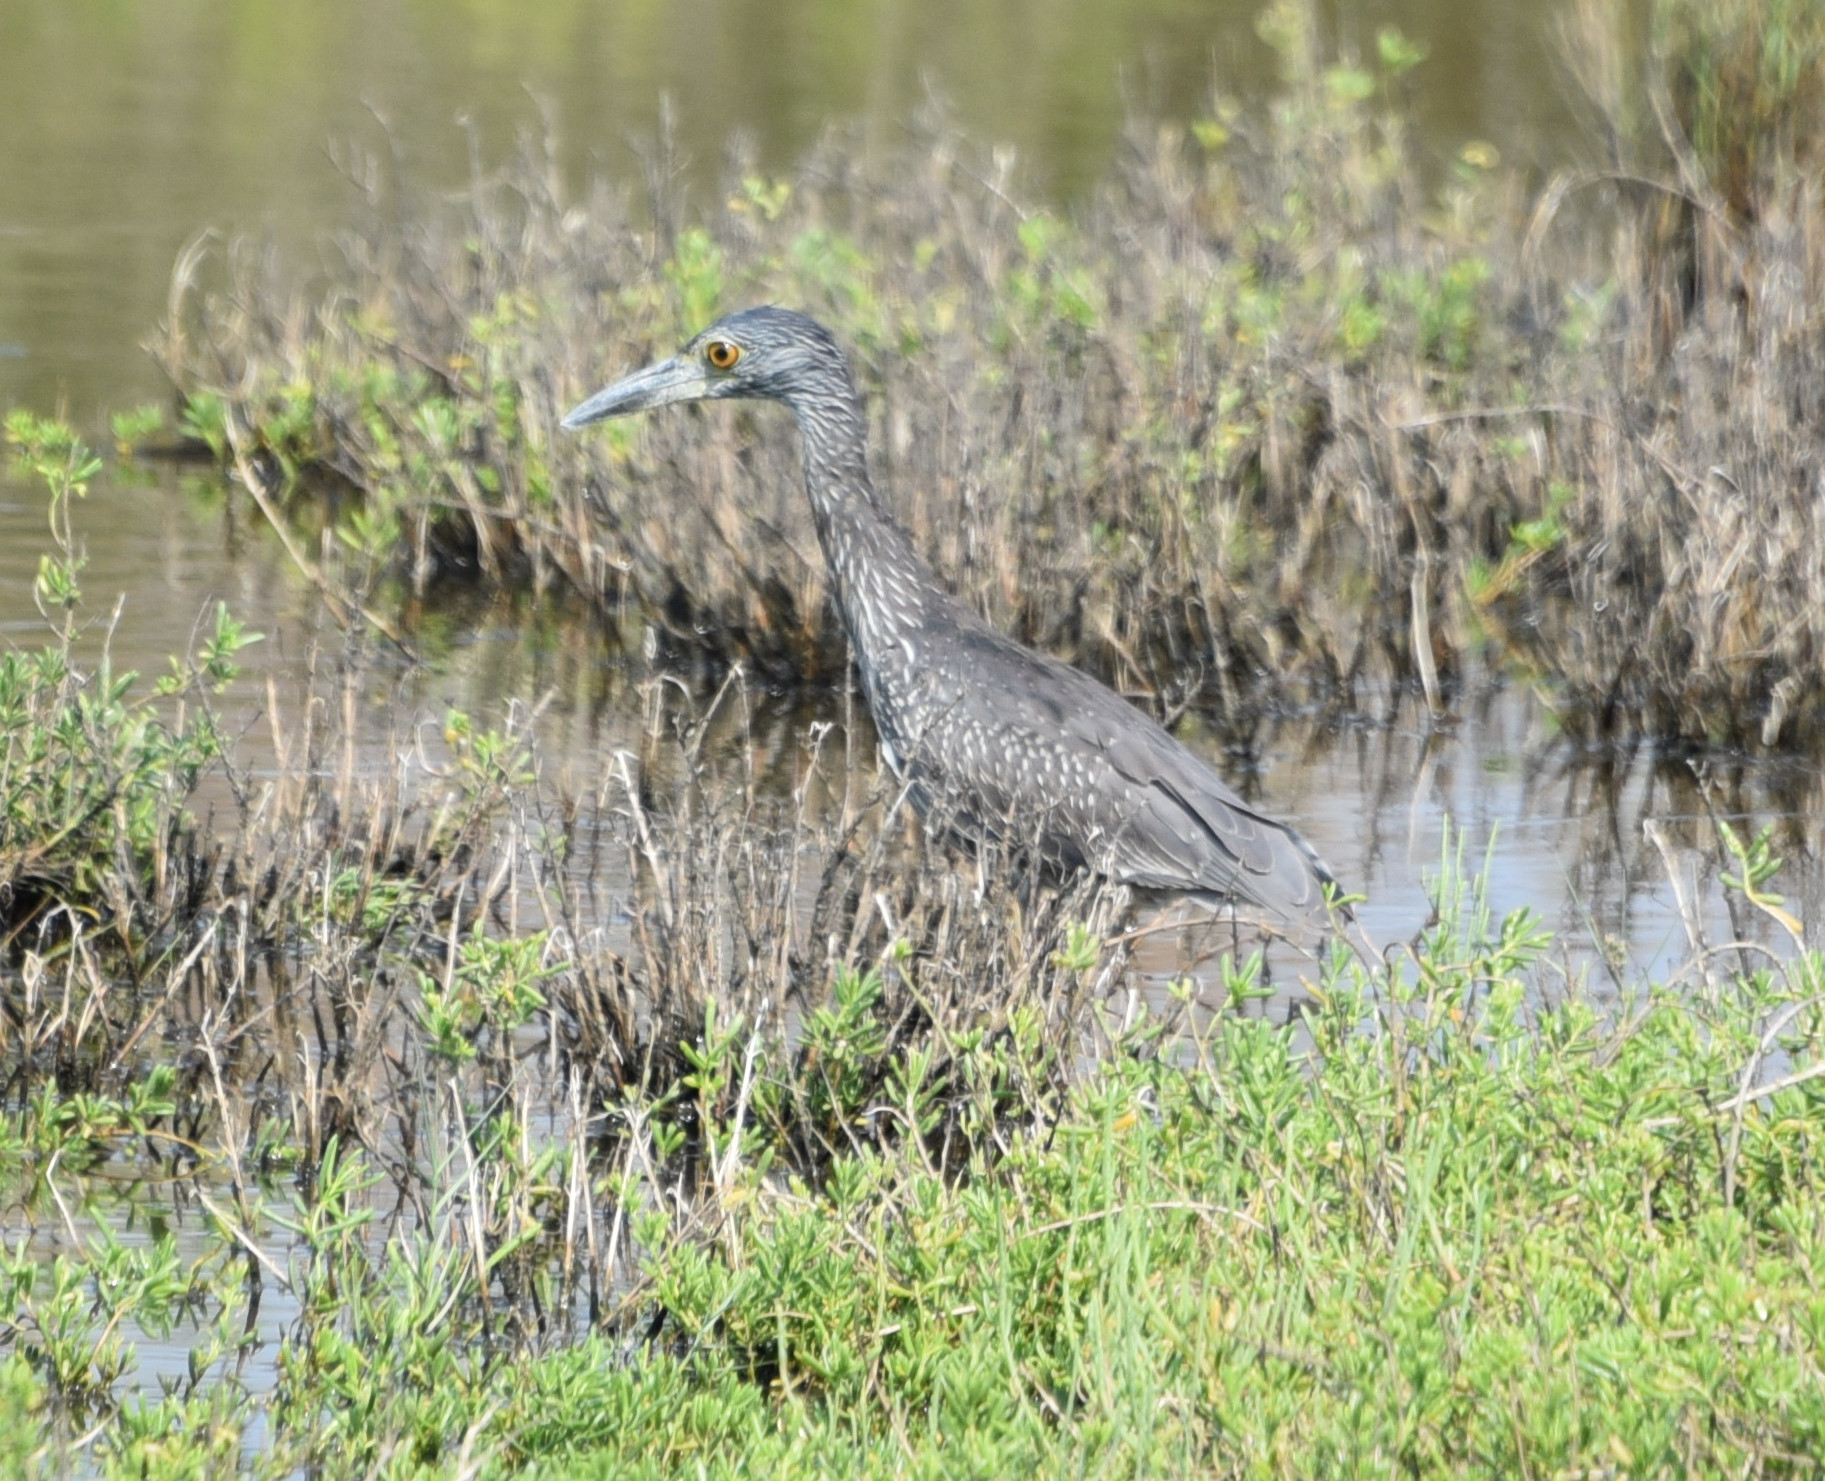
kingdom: Animalia
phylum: Chordata
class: Aves
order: Pelecaniformes
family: Ardeidae
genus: Nyctanassa
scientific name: Nyctanassa violacea
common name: Yellow-crowned night heron
